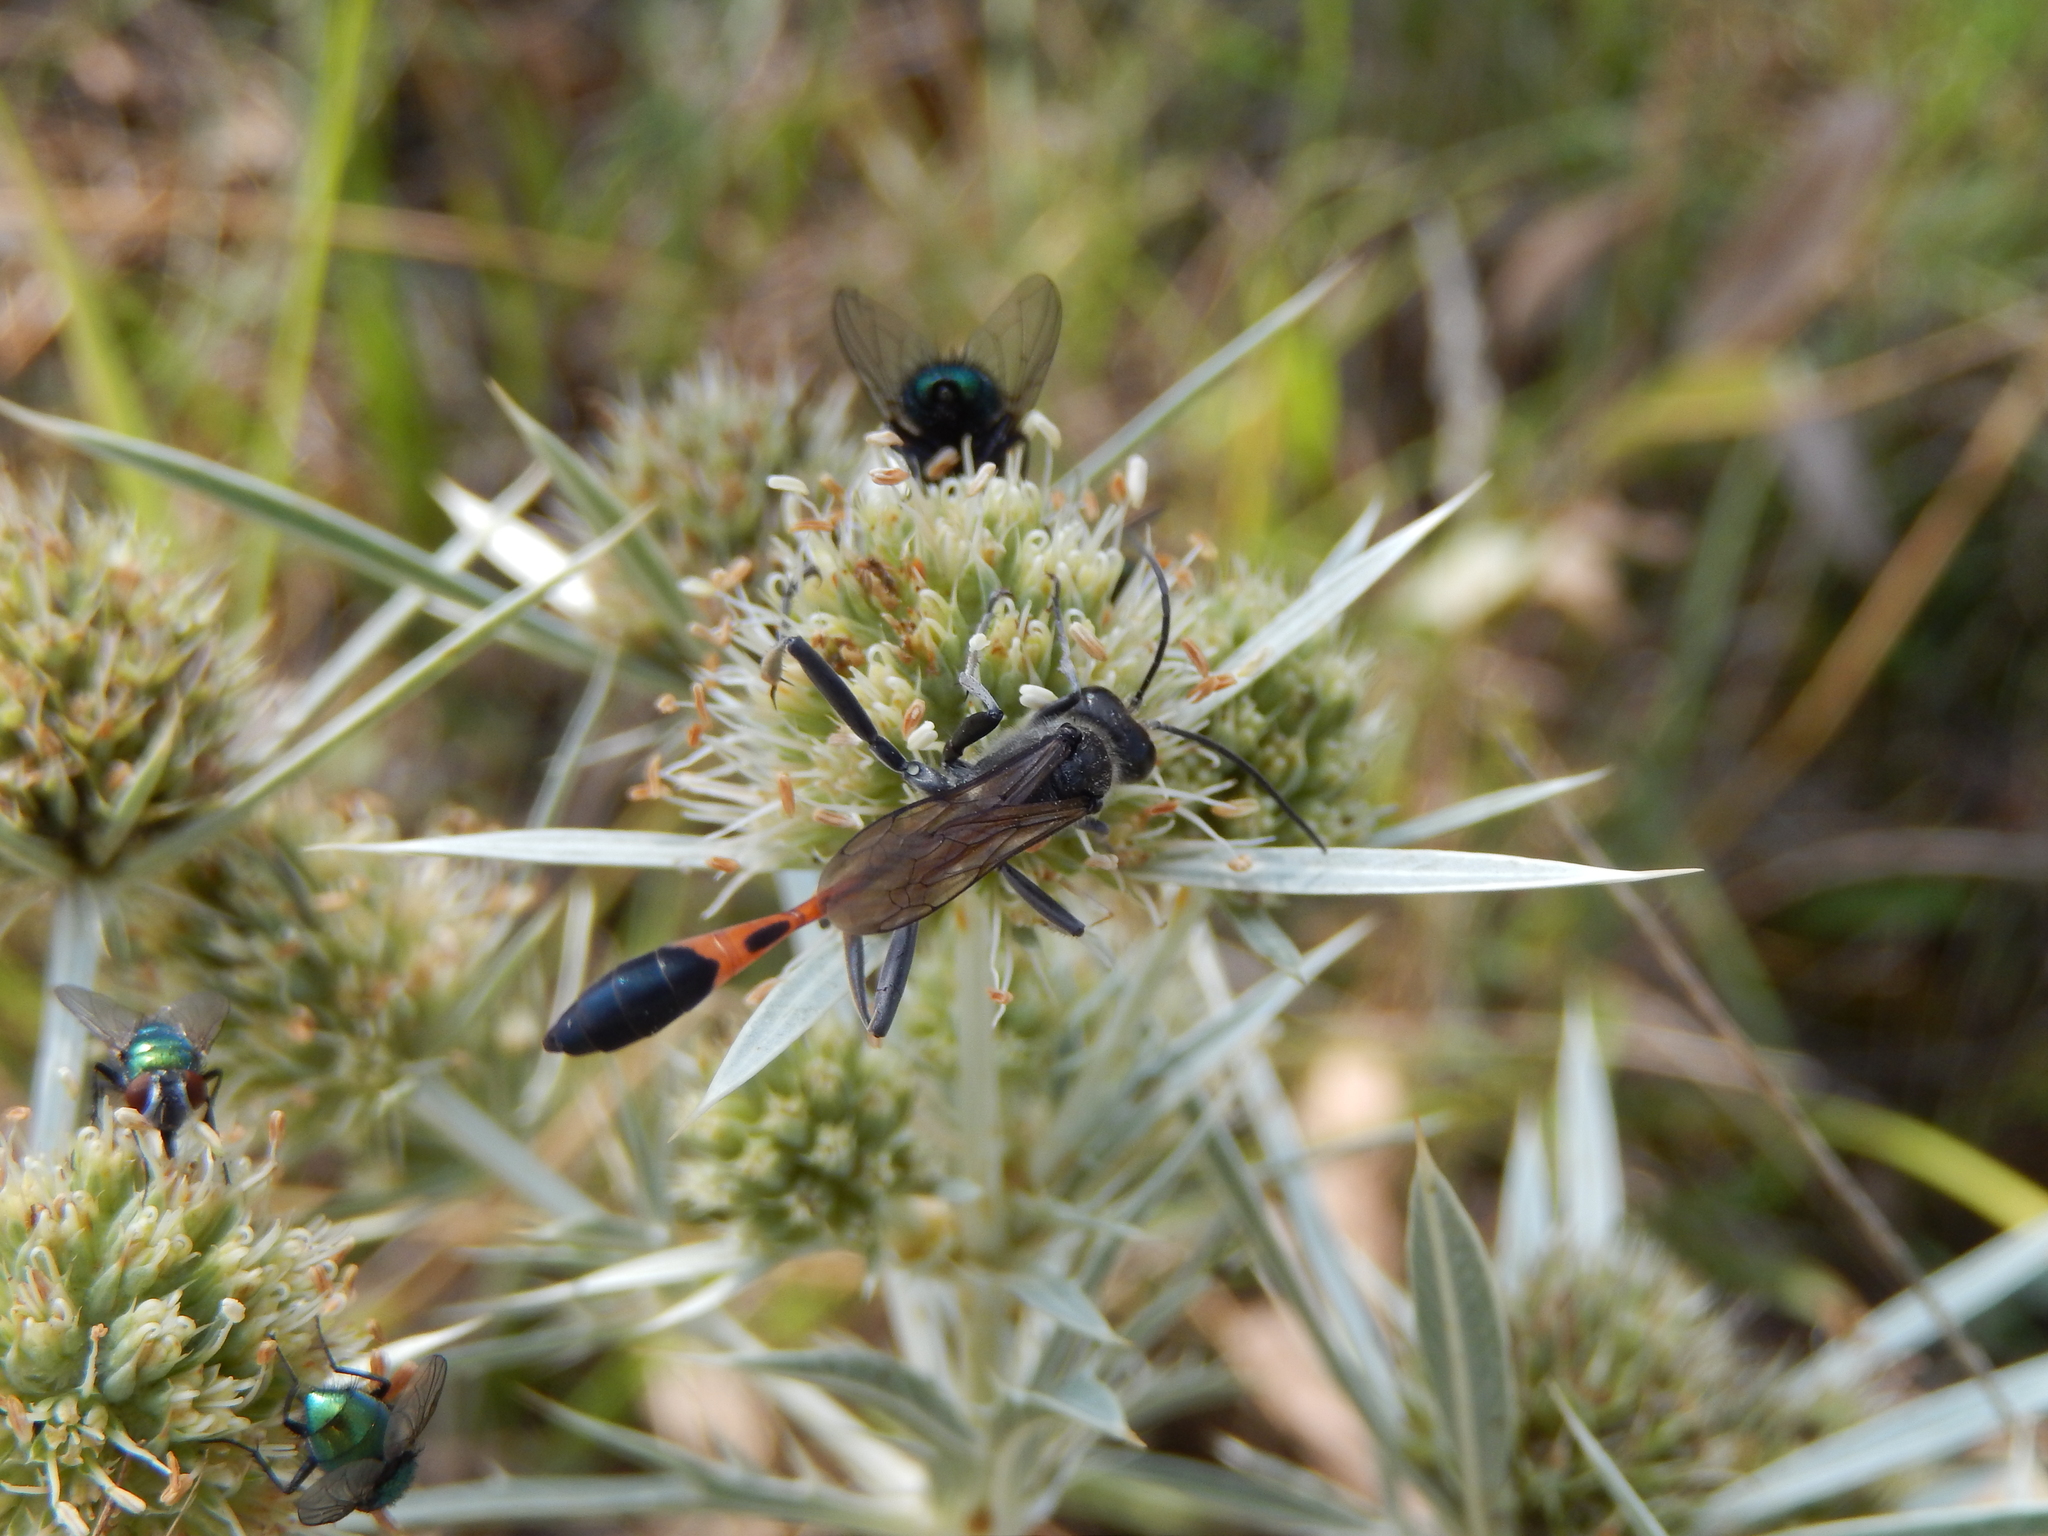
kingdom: Animalia
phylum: Arthropoda
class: Insecta
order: Hymenoptera
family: Sphecidae
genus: Ammophila
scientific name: Ammophila terminata
